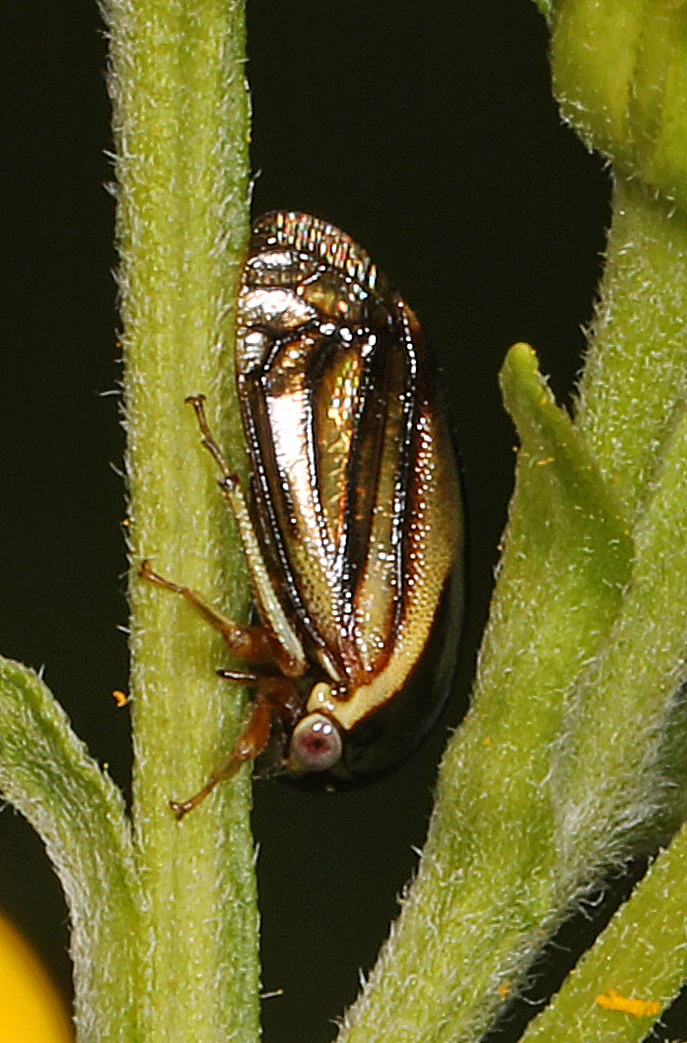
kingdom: Animalia
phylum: Arthropoda
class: Insecta
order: Hemiptera
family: Membracidae
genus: Acutalis
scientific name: Acutalis tartarea
